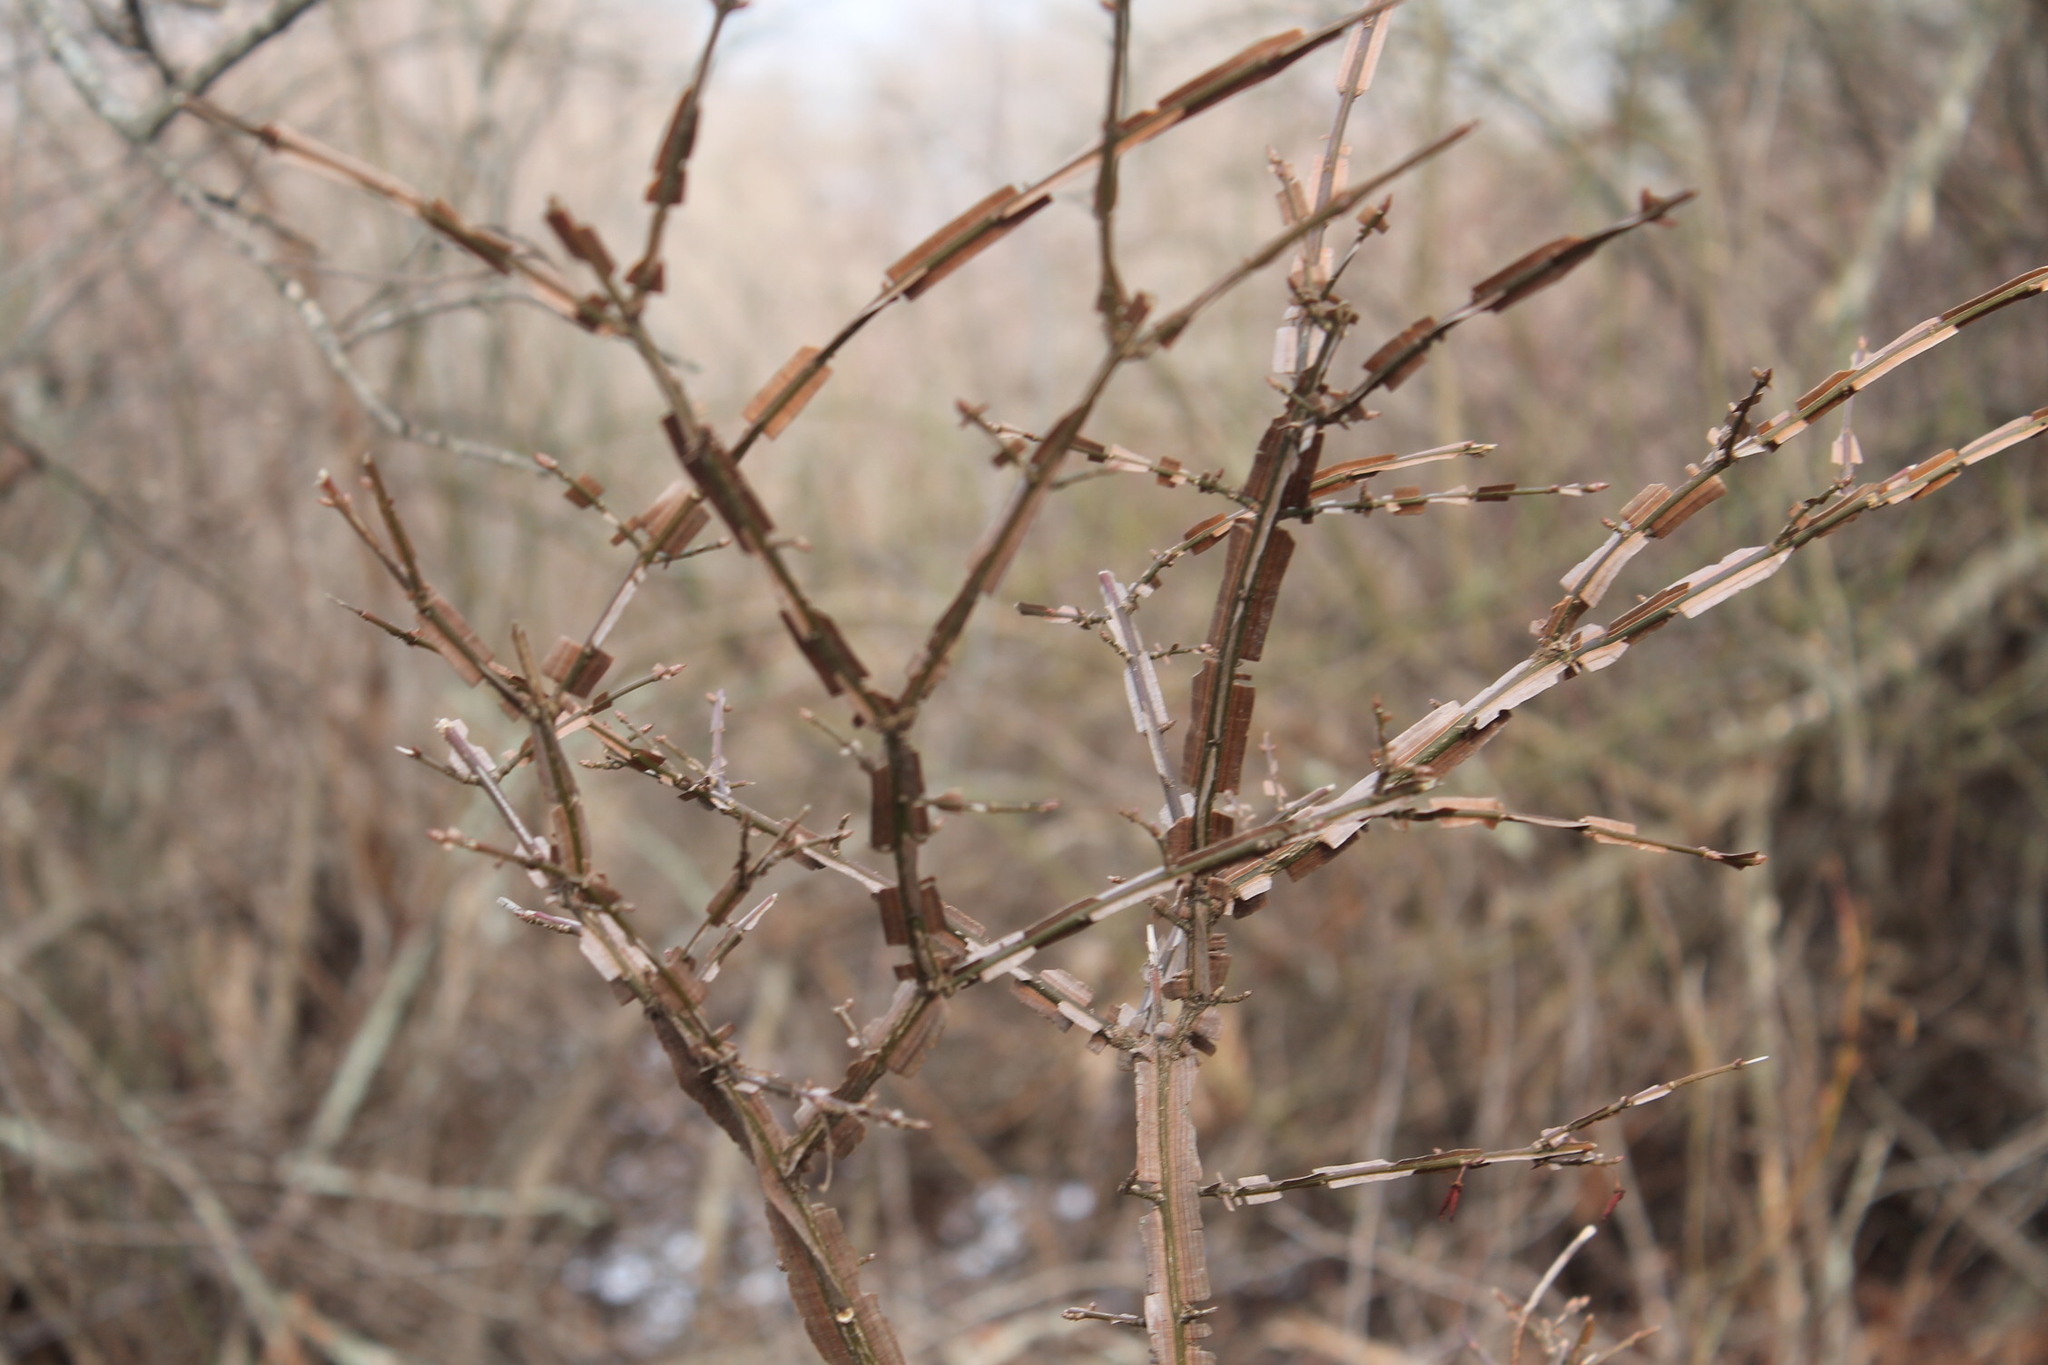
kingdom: Plantae
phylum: Tracheophyta
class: Magnoliopsida
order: Celastrales
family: Celastraceae
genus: Euonymus
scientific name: Euonymus alatus
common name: Winged euonymus
